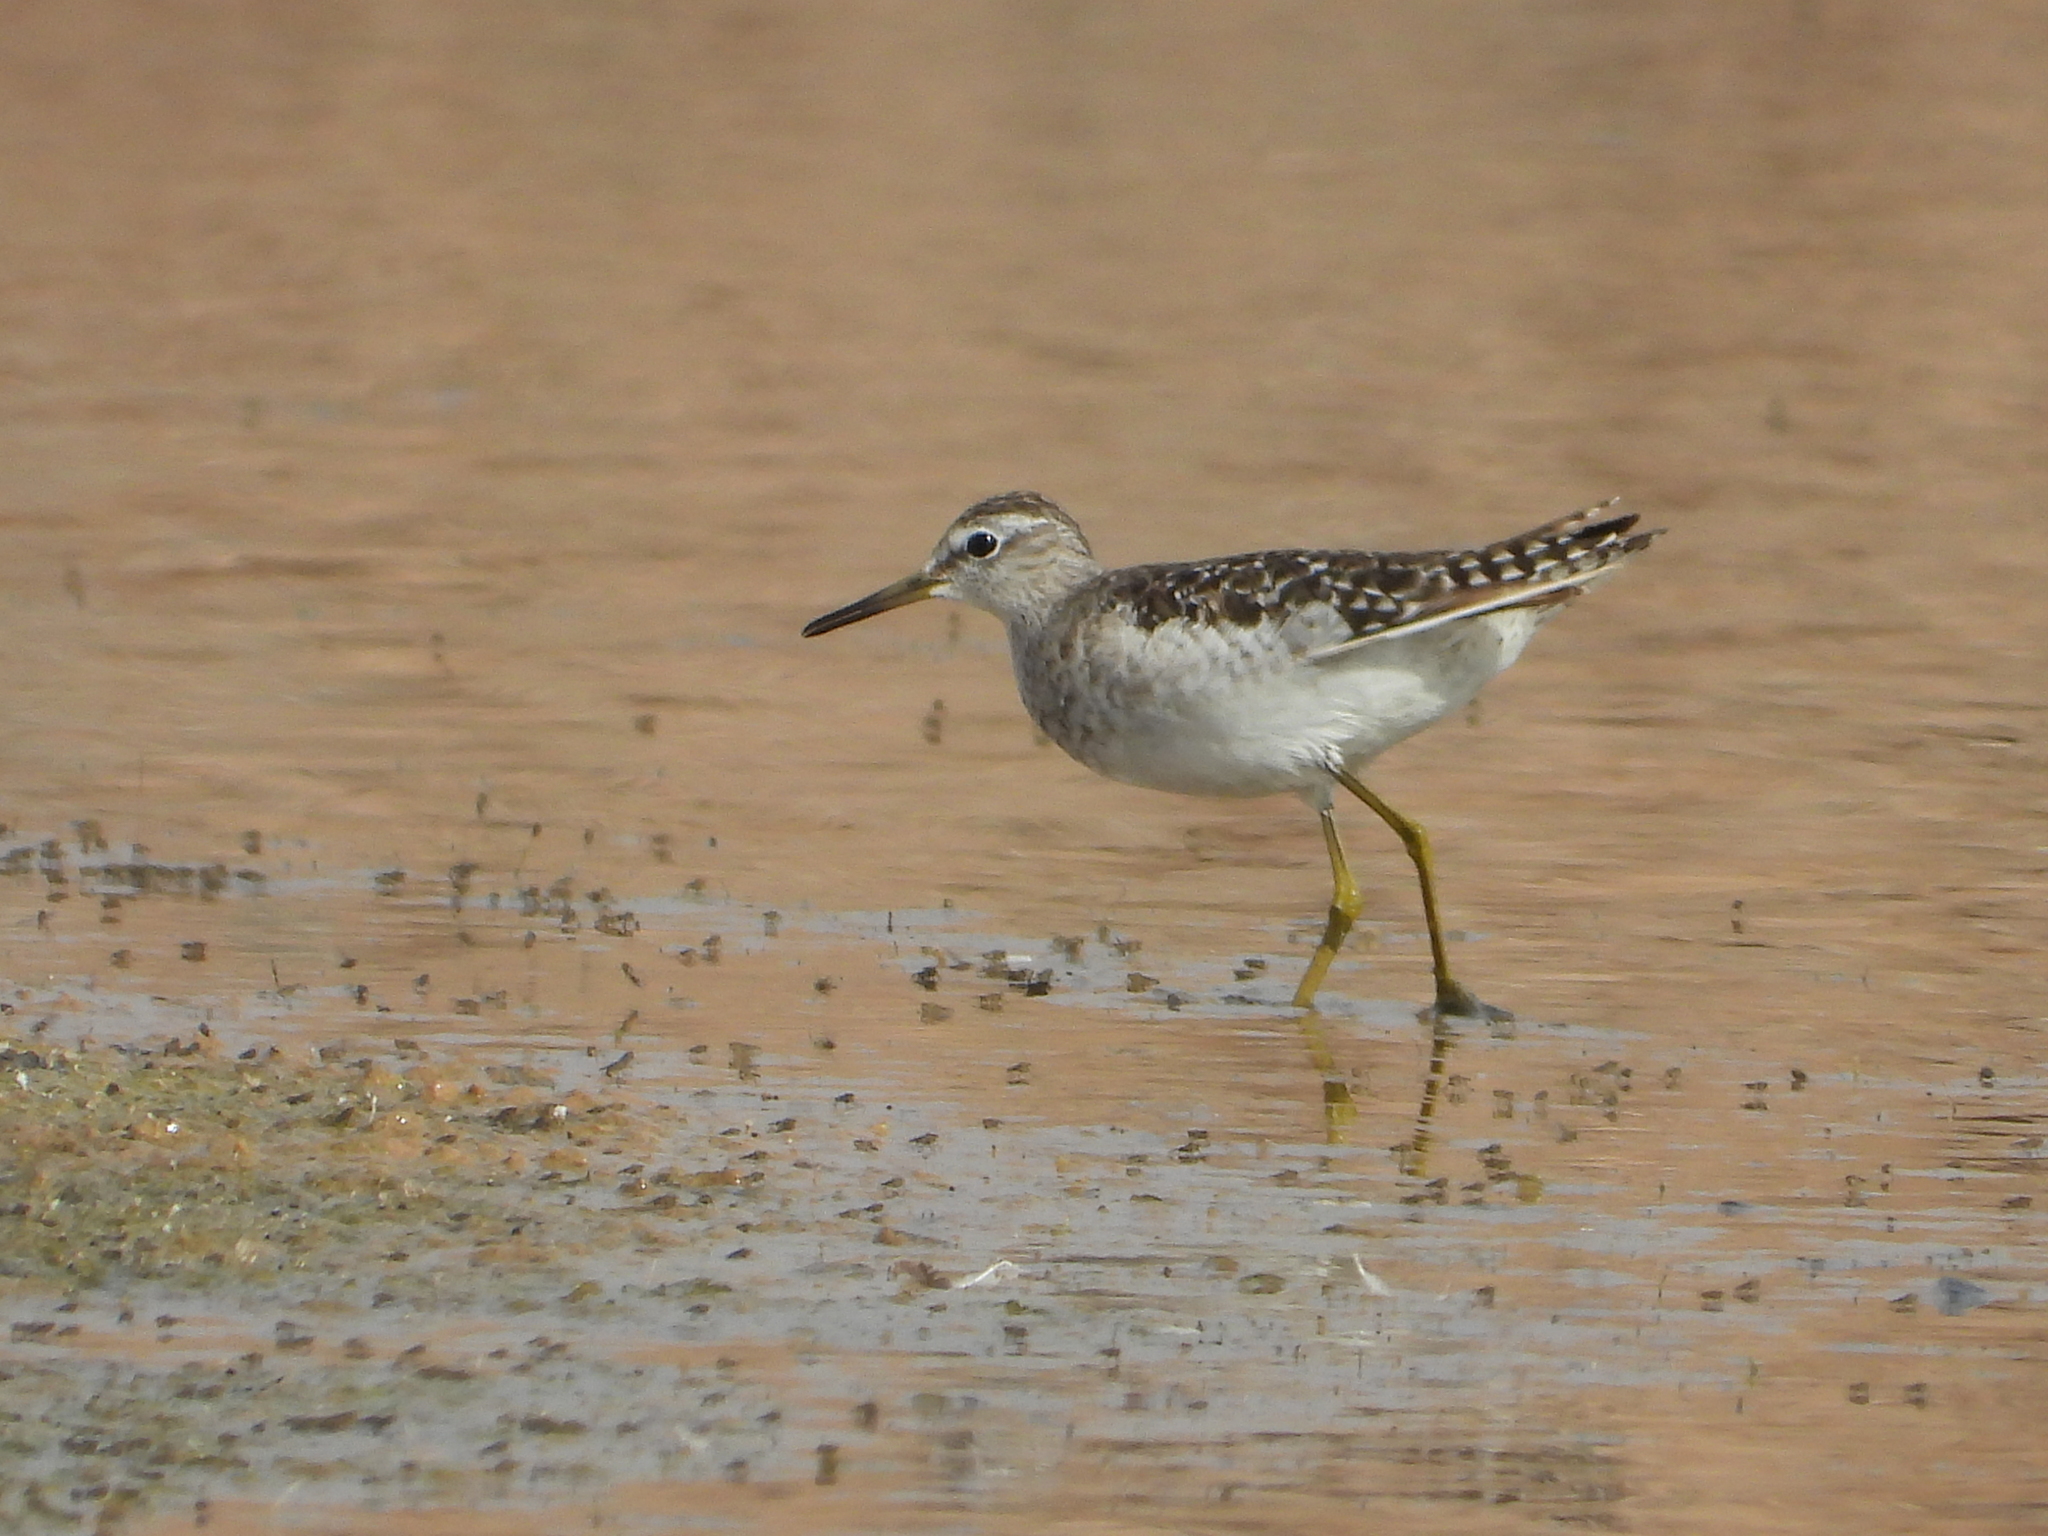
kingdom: Animalia
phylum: Chordata
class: Aves
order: Charadriiformes
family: Scolopacidae
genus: Tringa
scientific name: Tringa glareola
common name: Wood sandpiper
